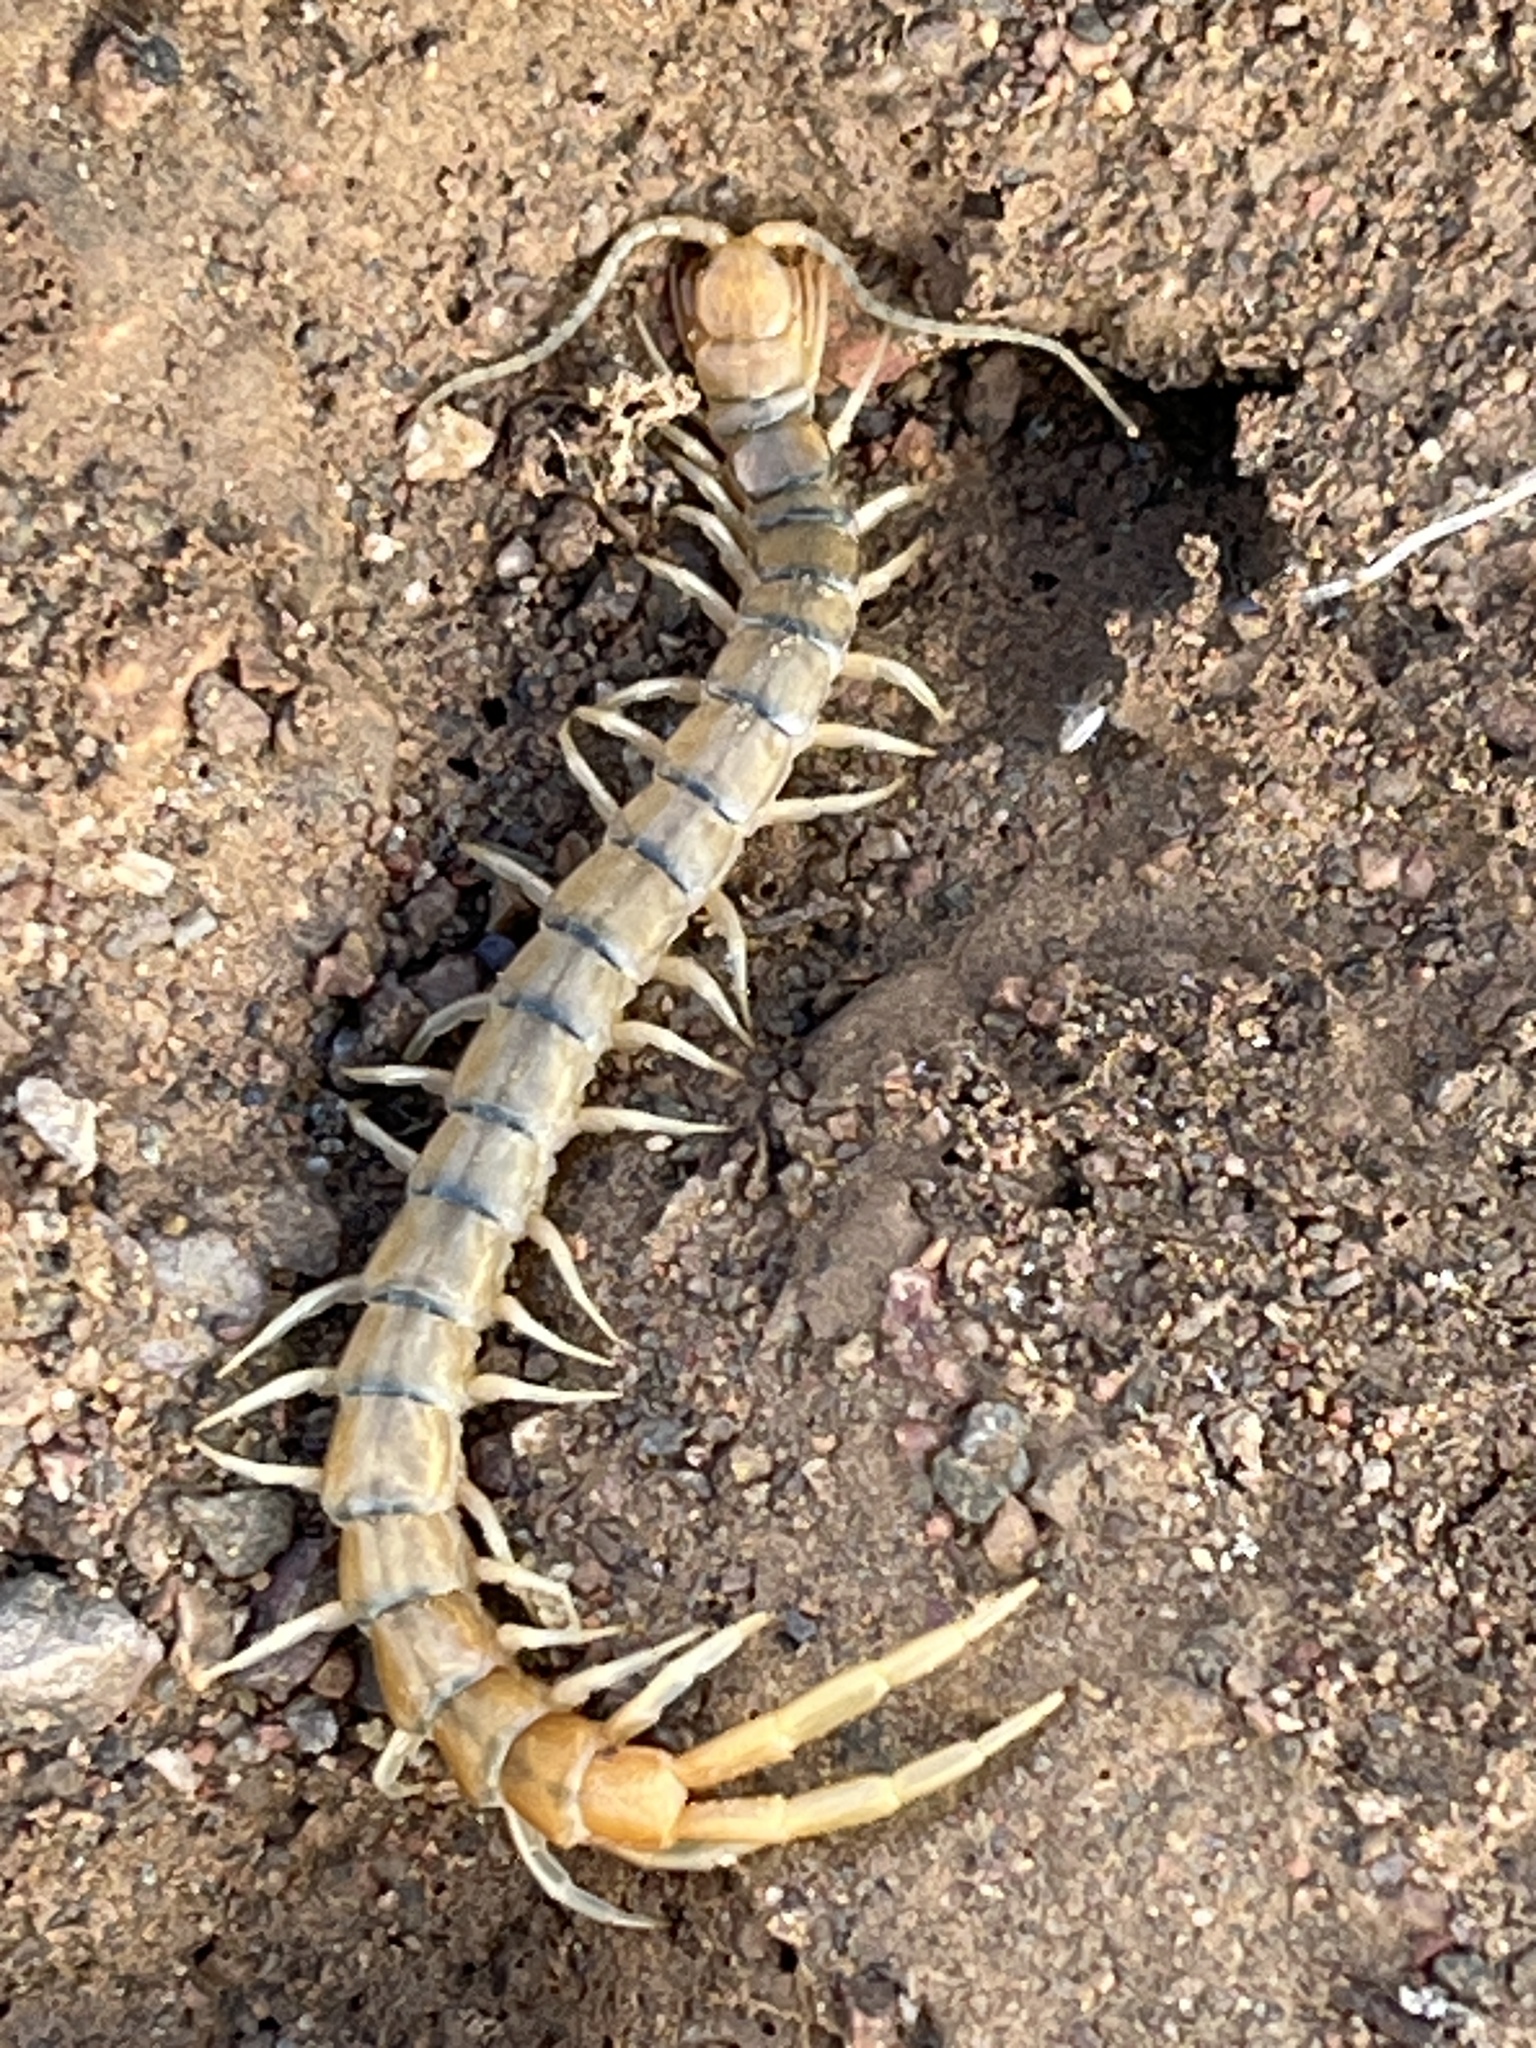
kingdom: Animalia
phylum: Arthropoda
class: Chilopoda
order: Scolopendromorpha
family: Scolopendridae
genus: Scolopendra
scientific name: Scolopendra polymorpha
